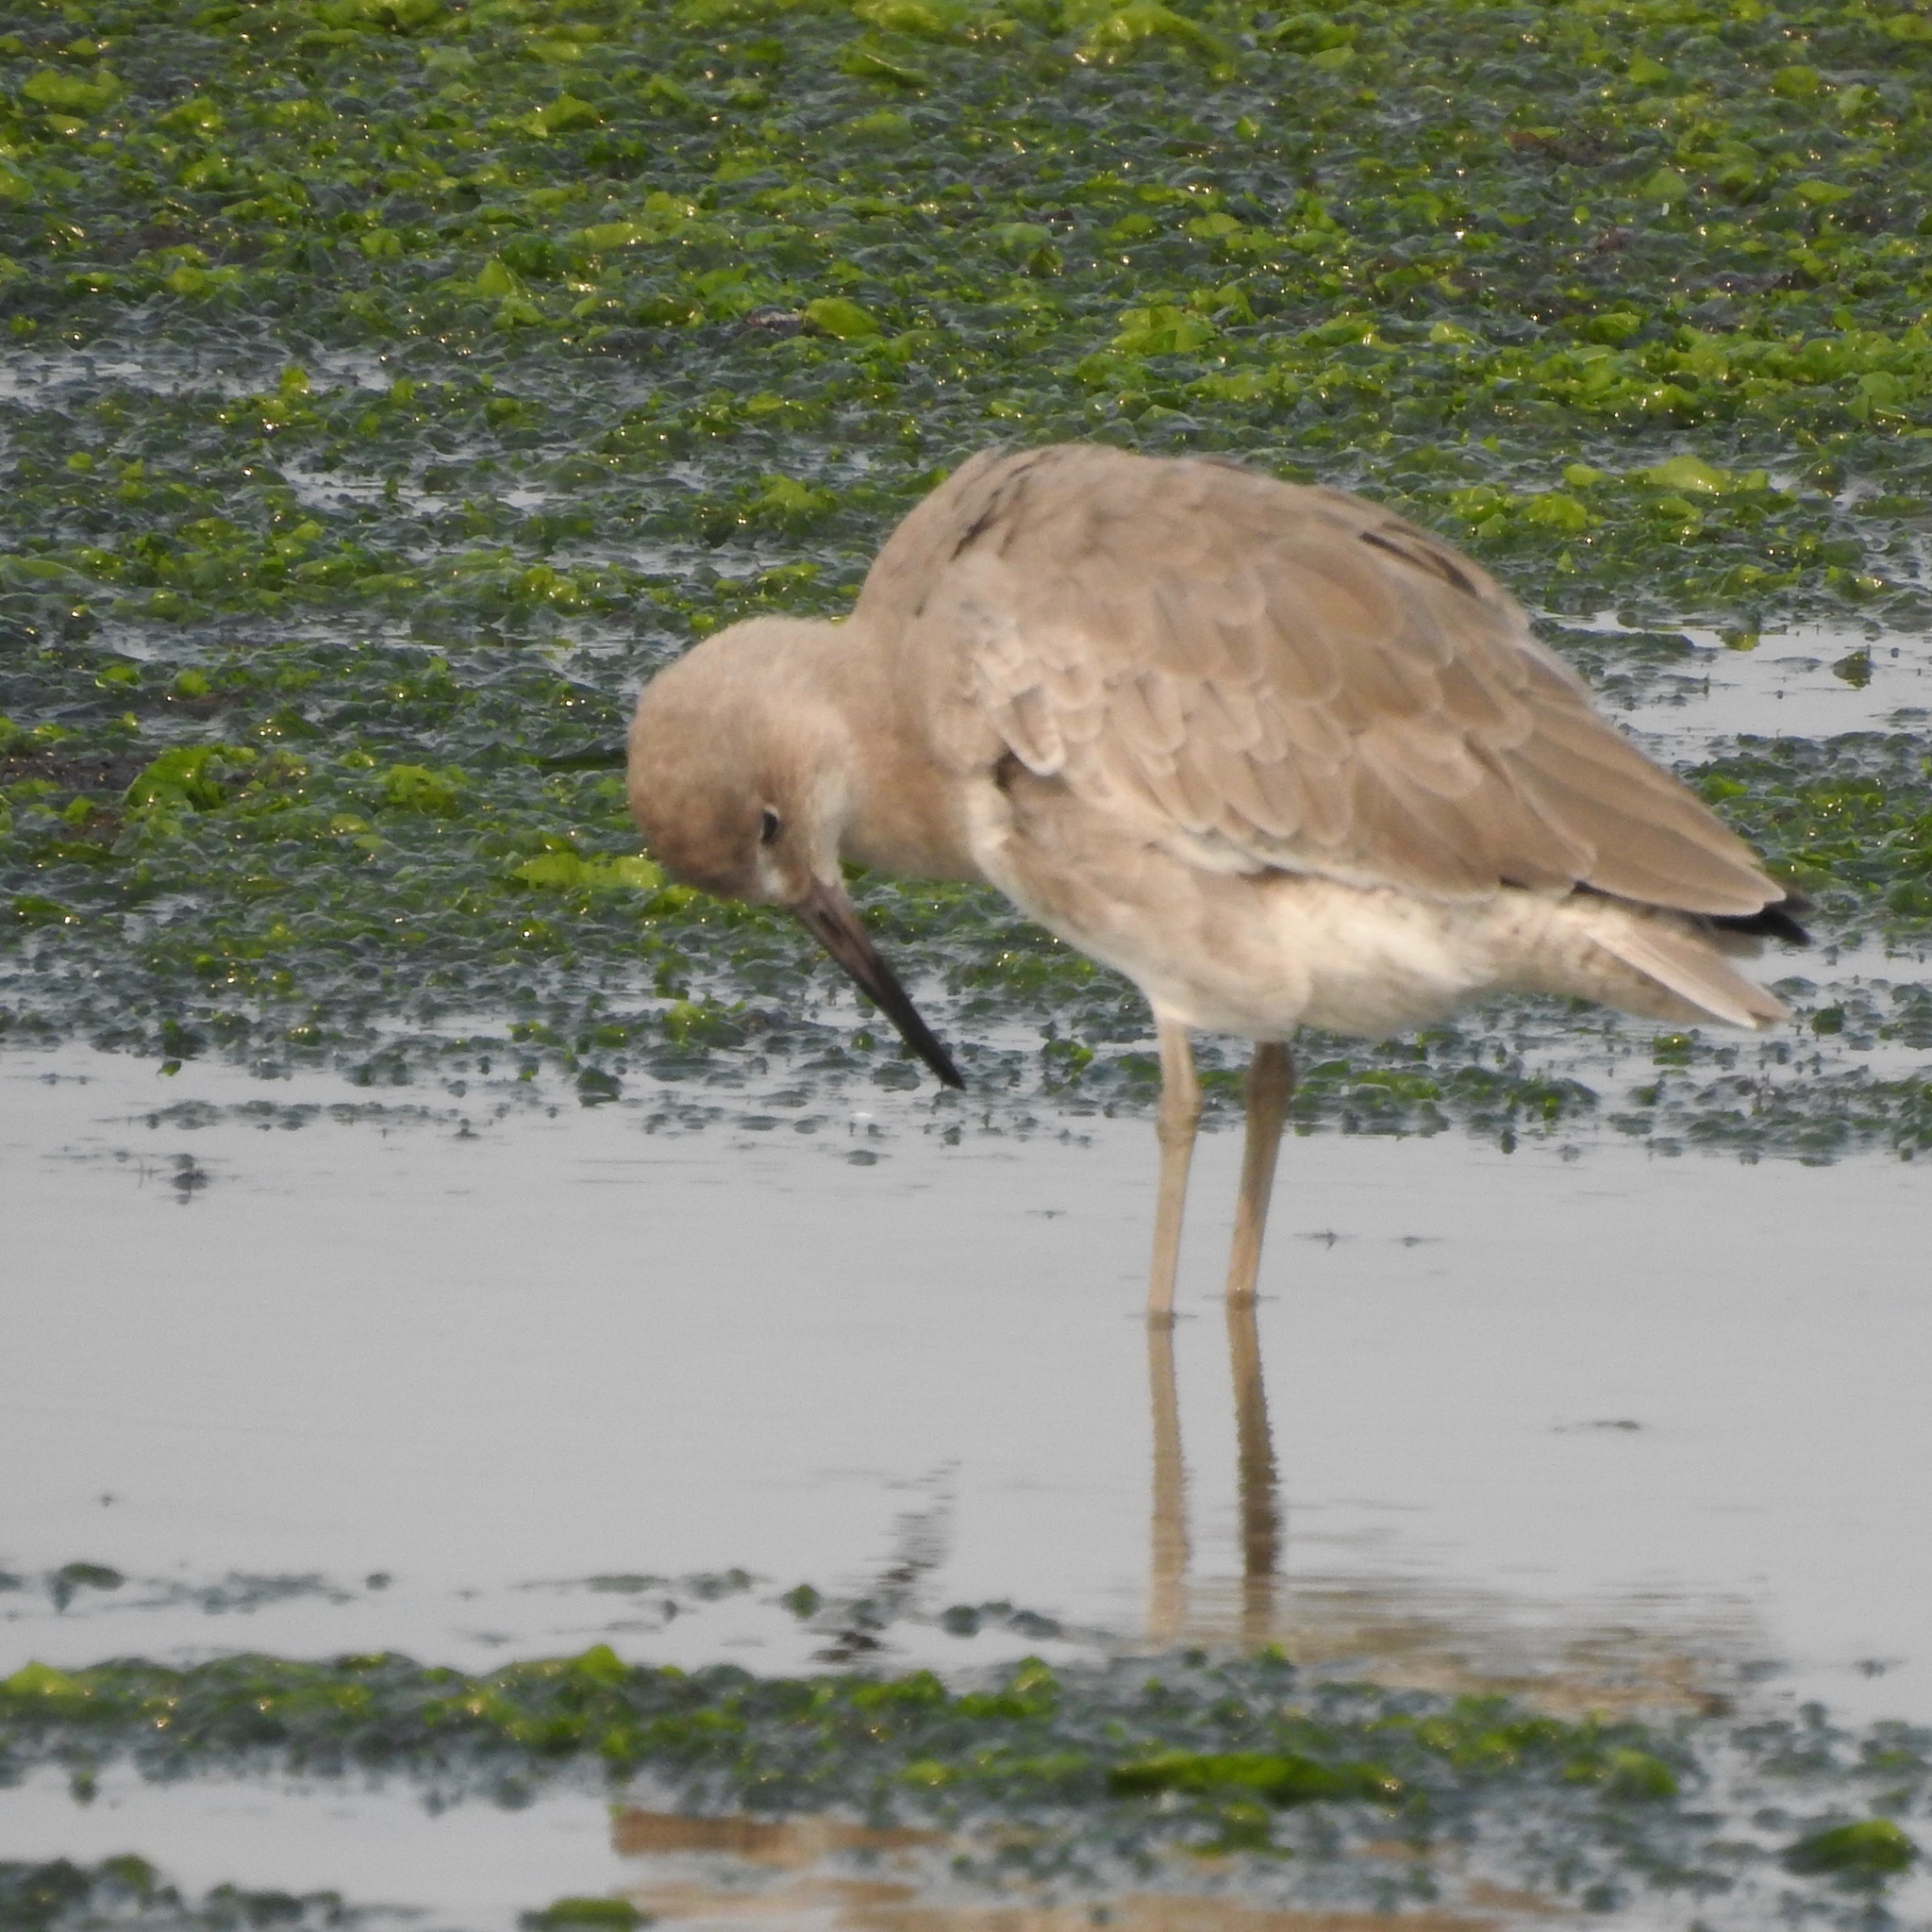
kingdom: Animalia
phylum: Chordata
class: Aves
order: Charadriiformes
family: Scolopacidae
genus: Tringa
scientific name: Tringa semipalmata
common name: Willet
